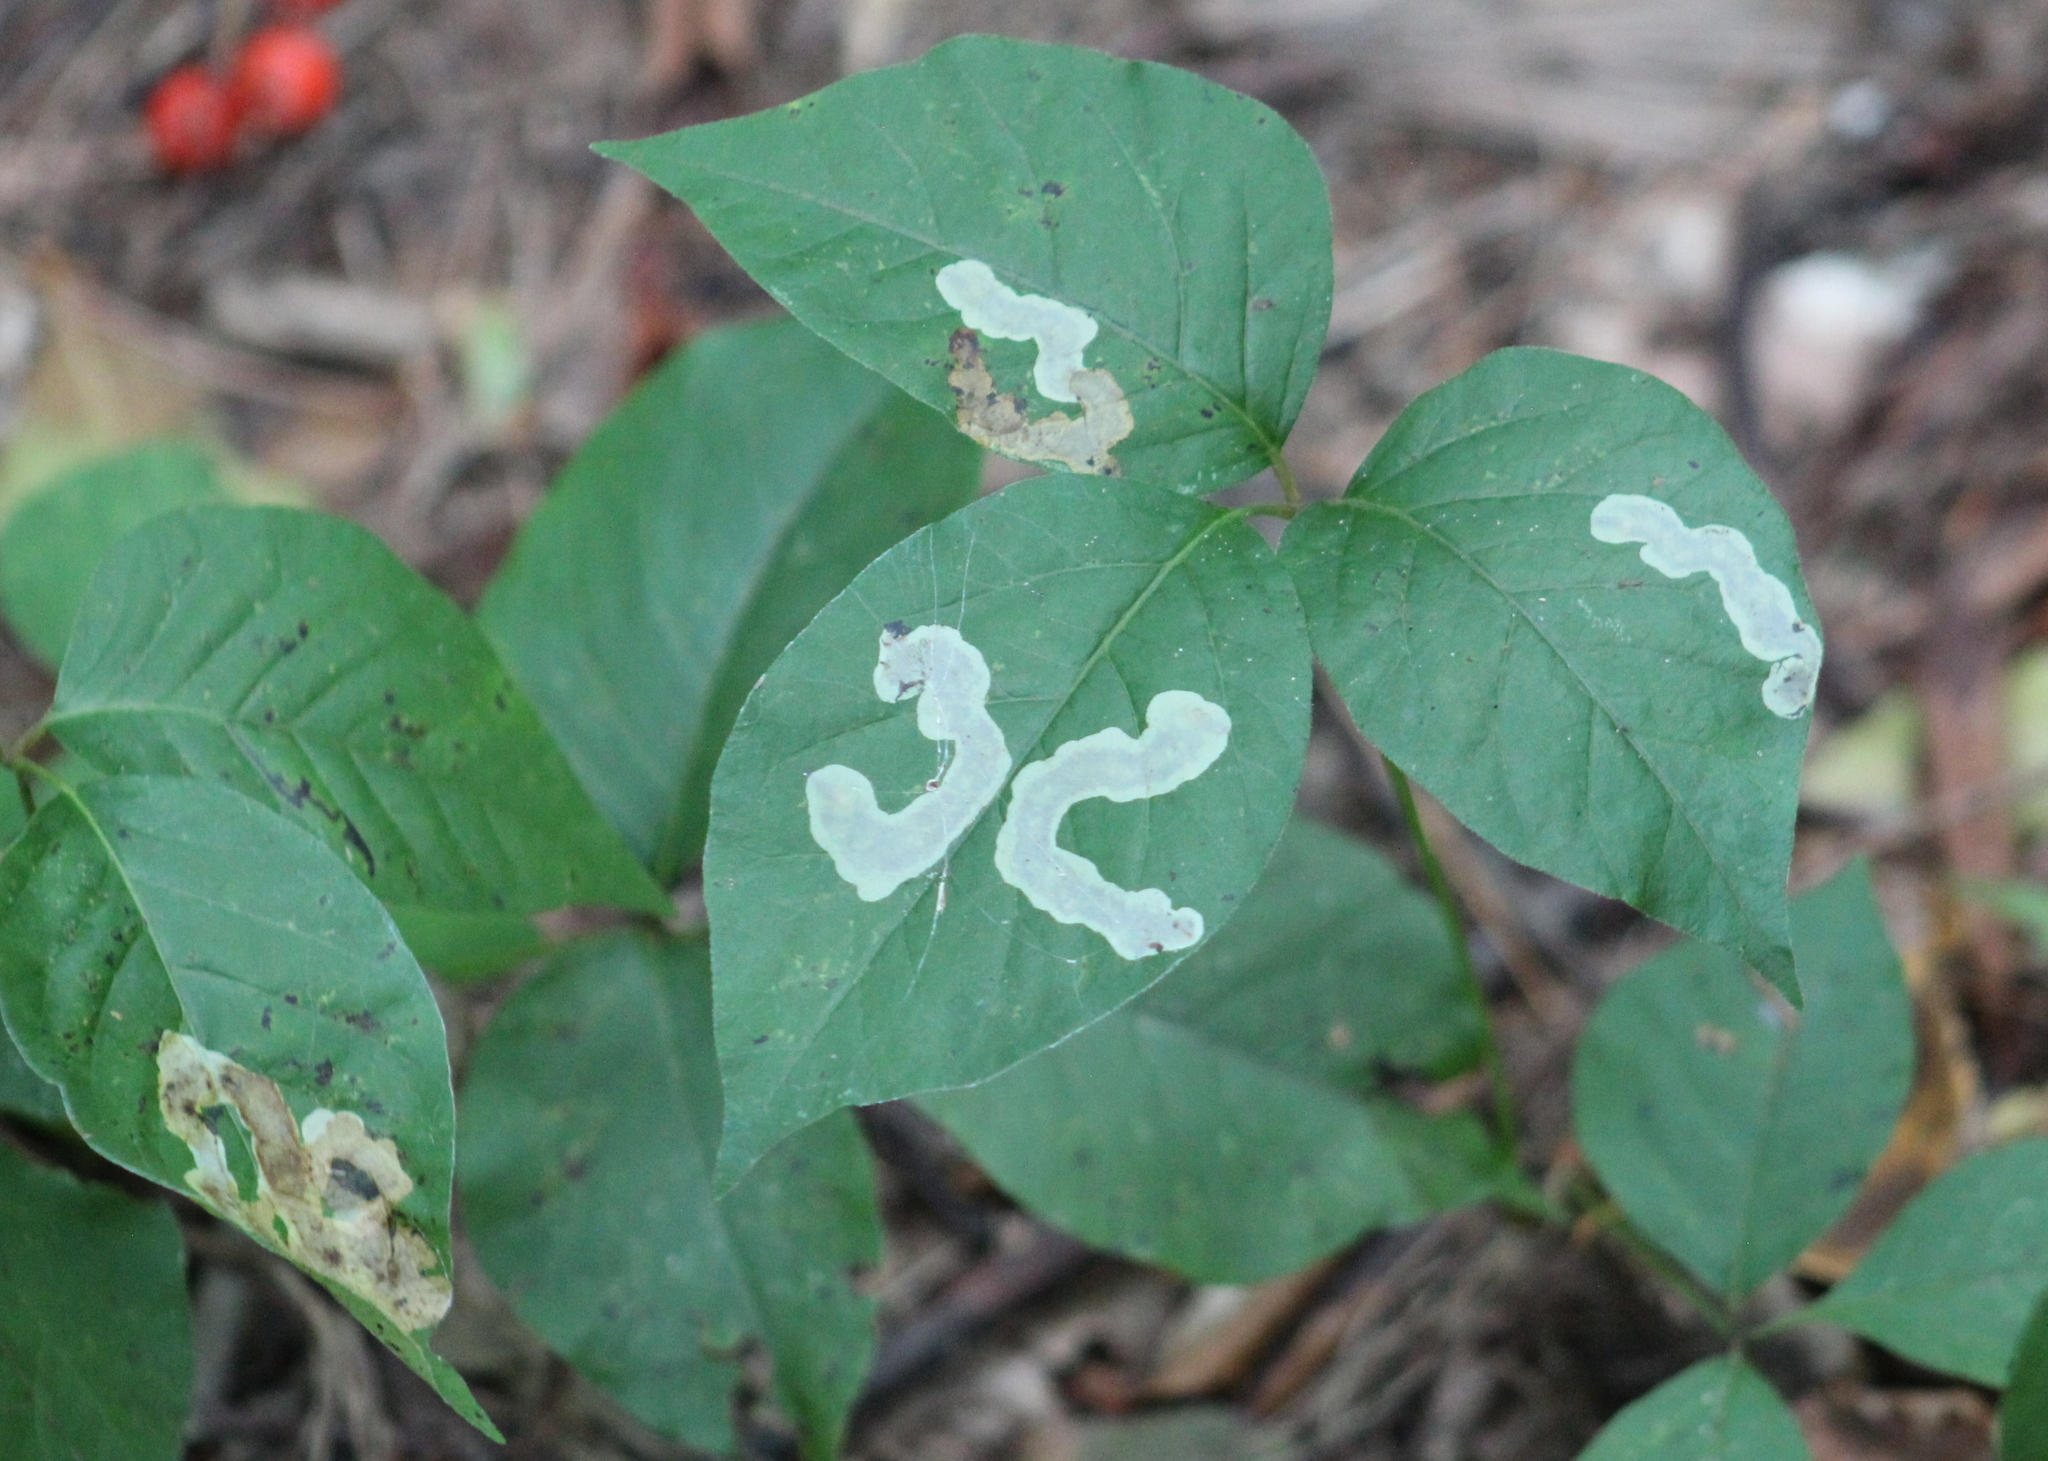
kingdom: Animalia
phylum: Arthropoda
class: Insecta
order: Lepidoptera
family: Gracillariidae
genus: Cameraria
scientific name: Cameraria guttifinitella
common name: Poison ivy leaf-miner moth
